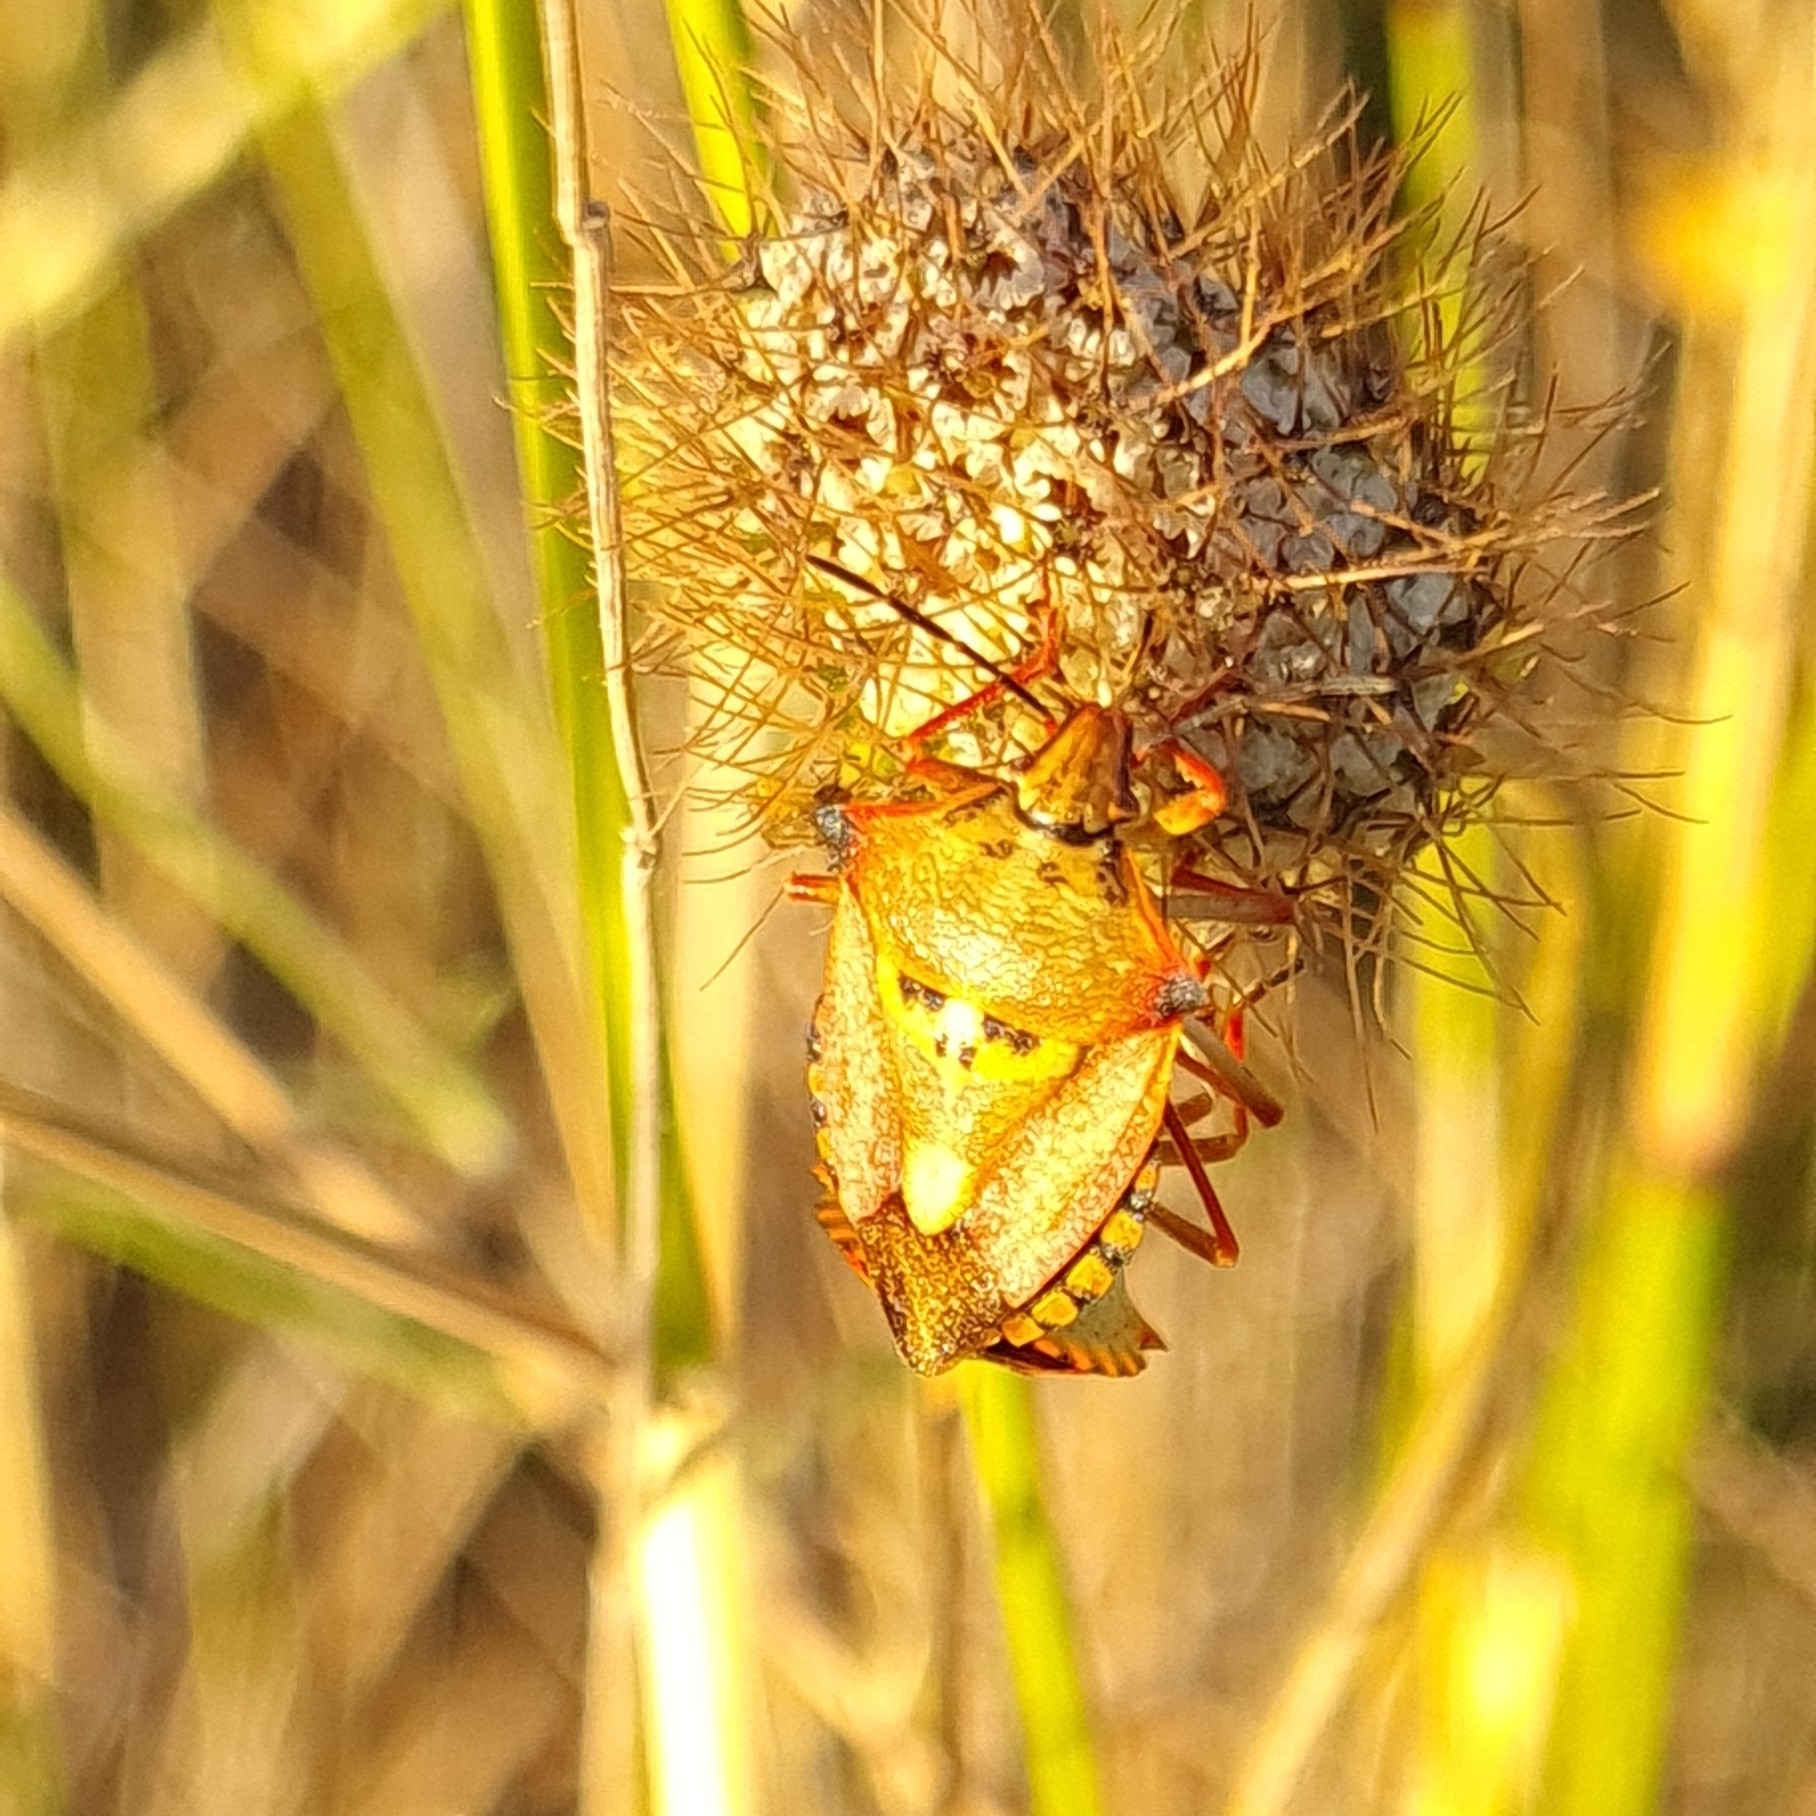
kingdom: Animalia
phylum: Arthropoda
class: Insecta
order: Hemiptera
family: Pentatomidae
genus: Carpocoris
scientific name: Carpocoris mediterraneus
